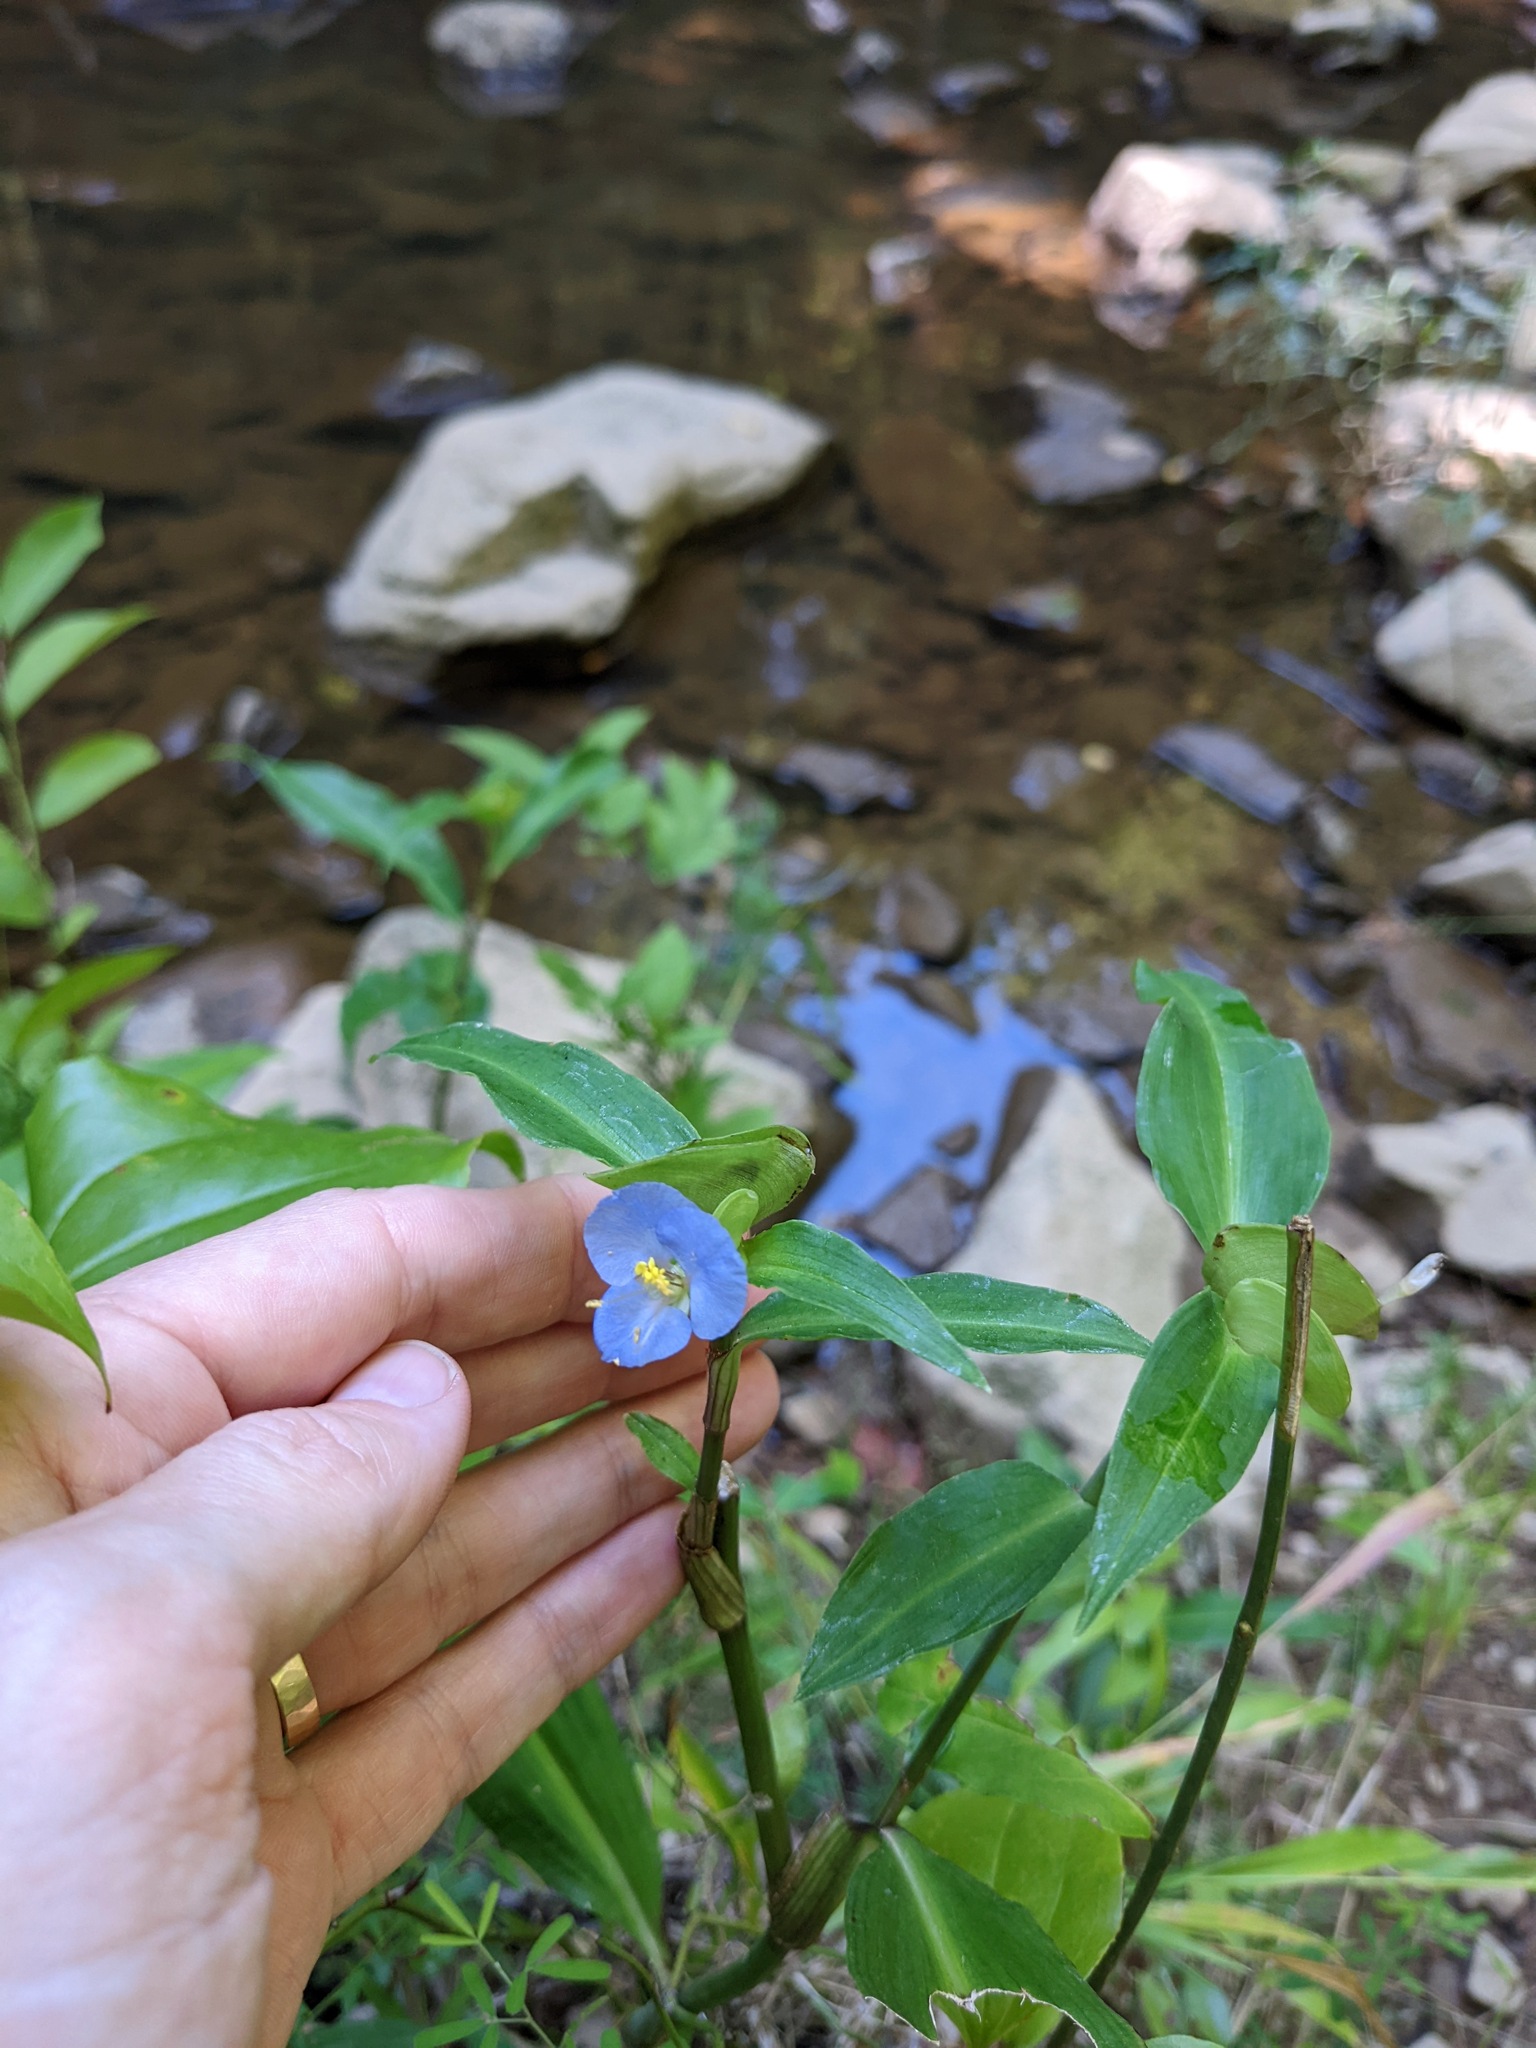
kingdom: Plantae
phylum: Tracheophyta
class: Liliopsida
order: Commelinales
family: Commelinaceae
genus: Commelina
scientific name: Commelina virginica
